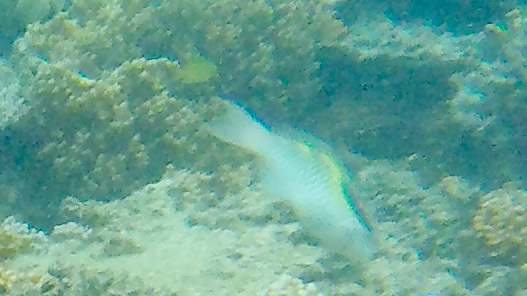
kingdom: Animalia
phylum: Chordata
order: Perciformes
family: Scaridae
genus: Scarus
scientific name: Scarus oviceps
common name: Blue parrotfish
